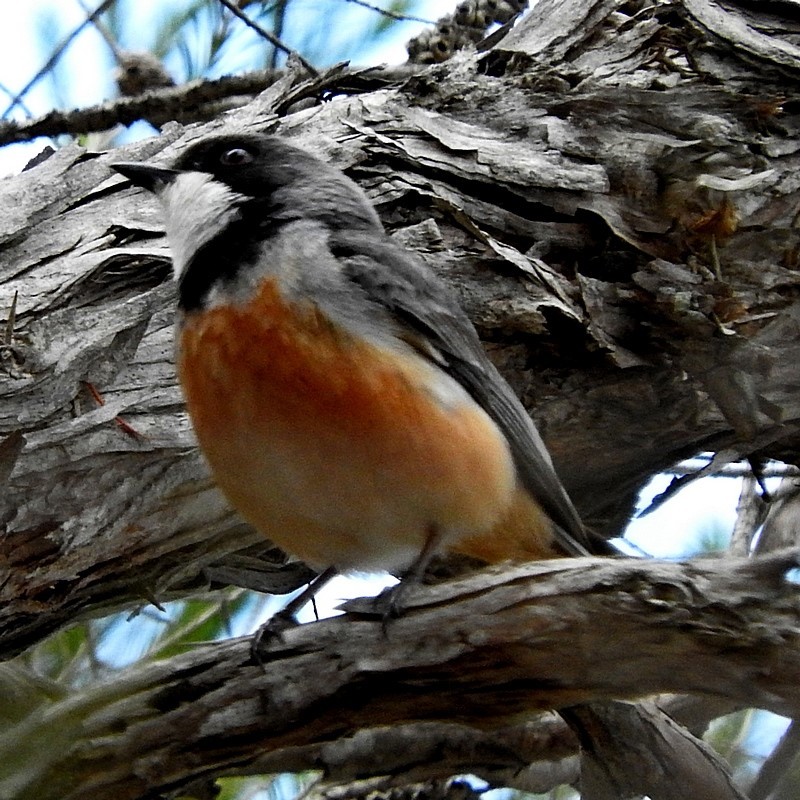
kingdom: Animalia
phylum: Chordata
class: Aves
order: Passeriformes
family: Pachycephalidae
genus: Pachycephala
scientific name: Pachycephala rufiventris
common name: Rufous whistler
